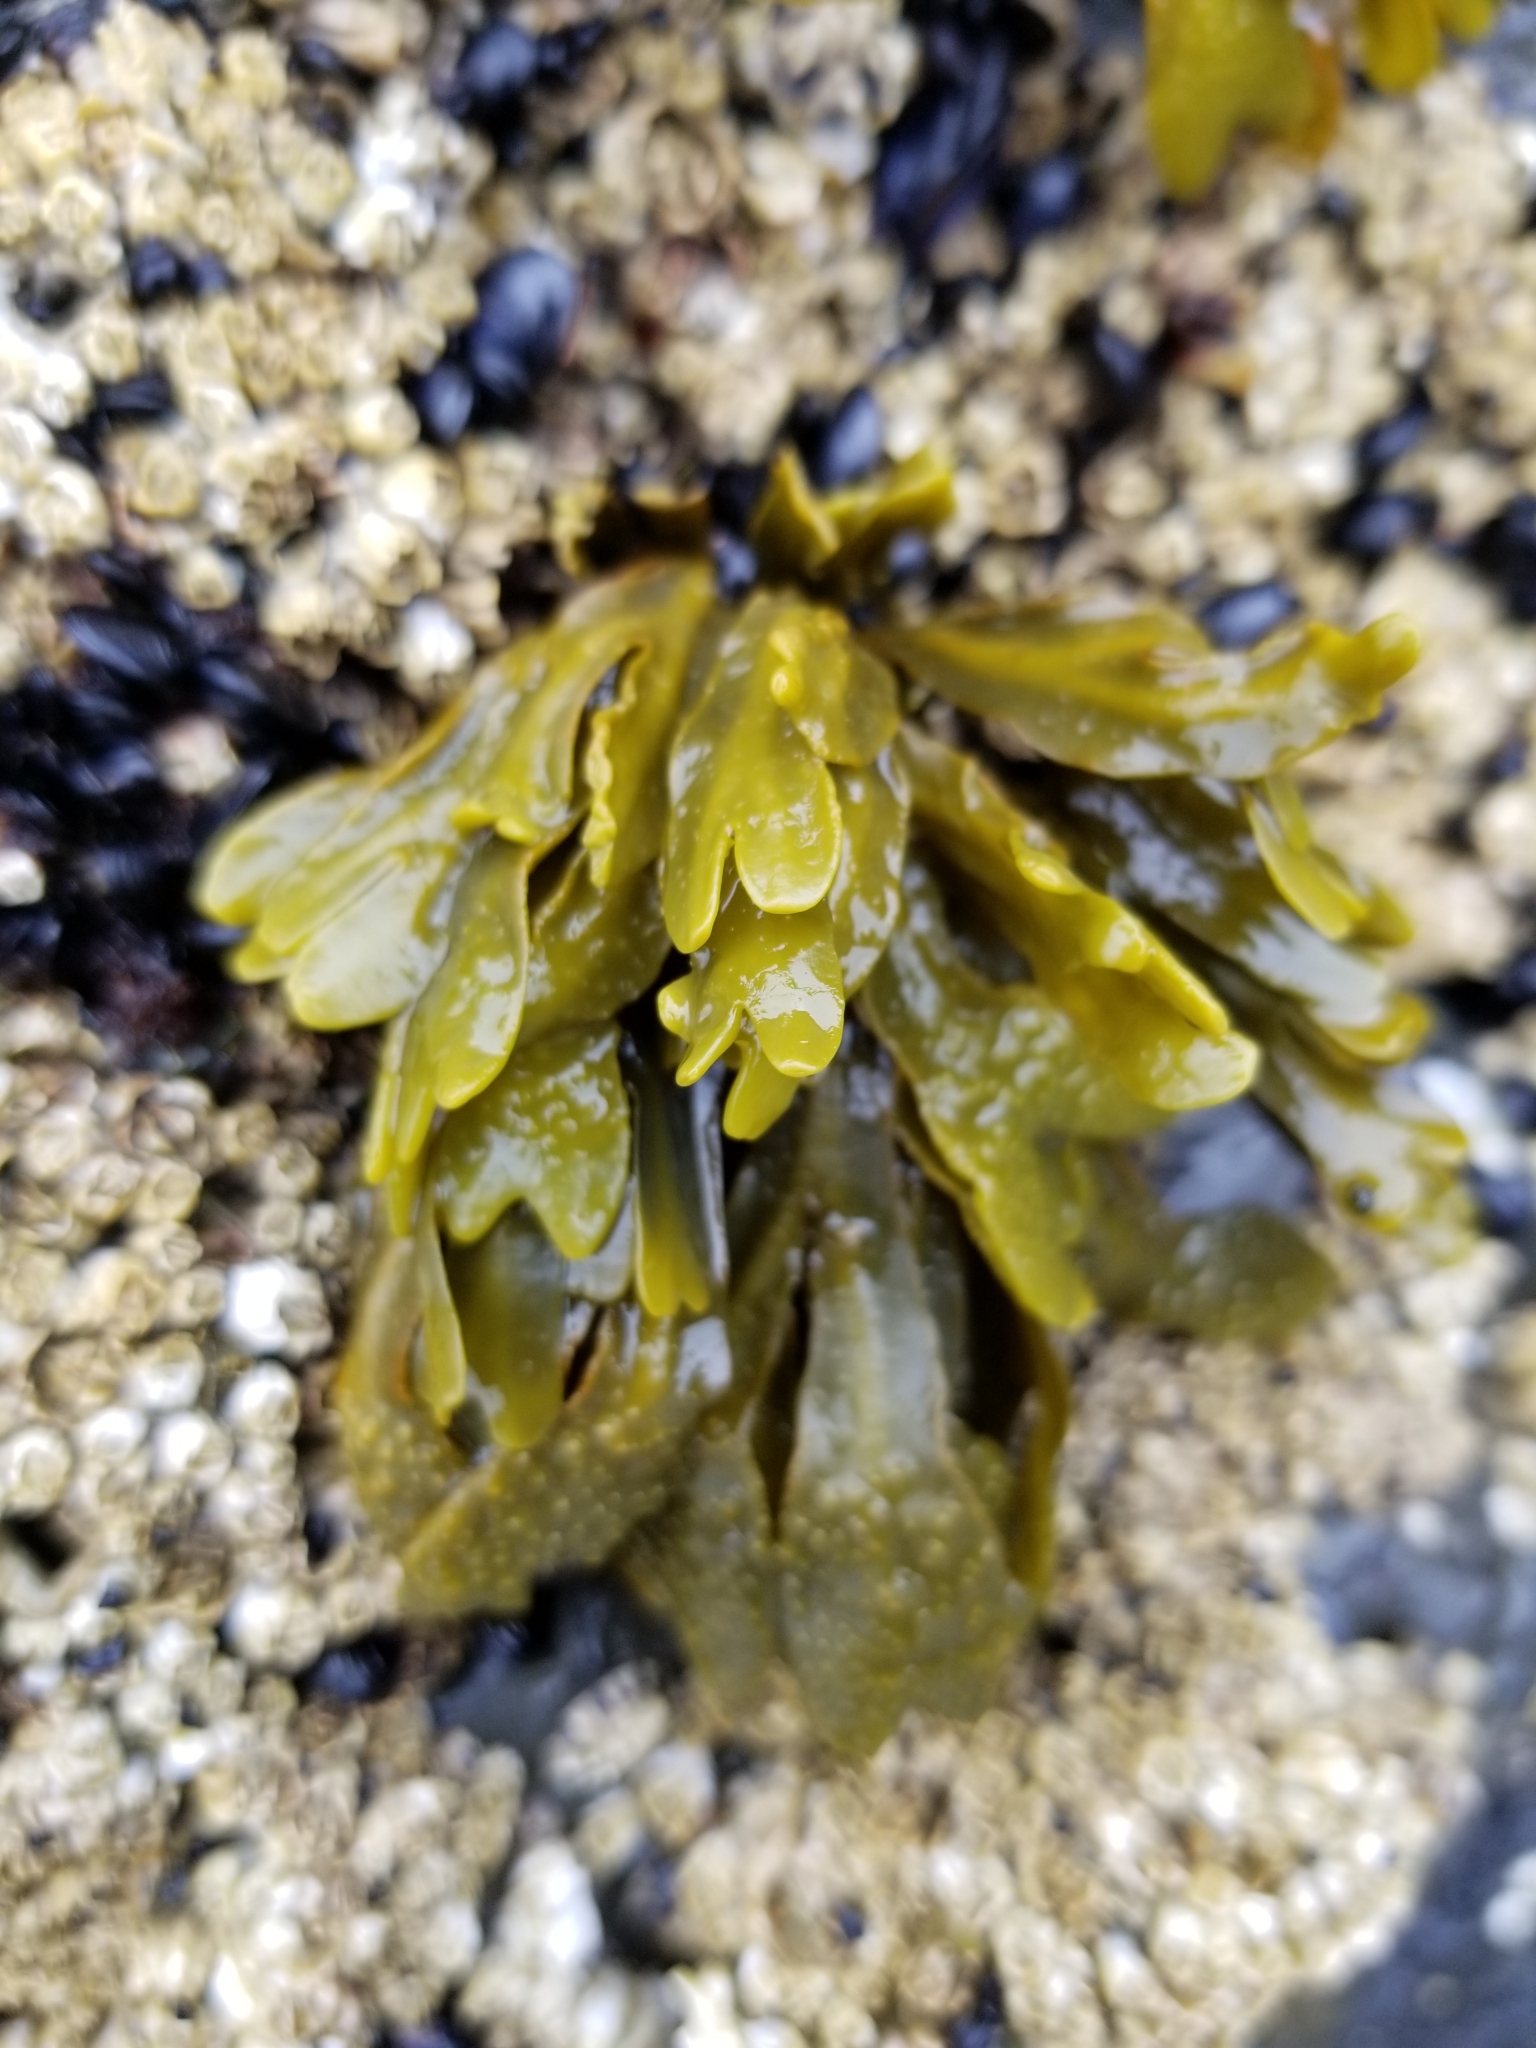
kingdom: Chromista
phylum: Ochrophyta
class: Phaeophyceae
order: Fucales
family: Fucaceae
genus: Fucus
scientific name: Fucus distichus
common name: Rockweed
